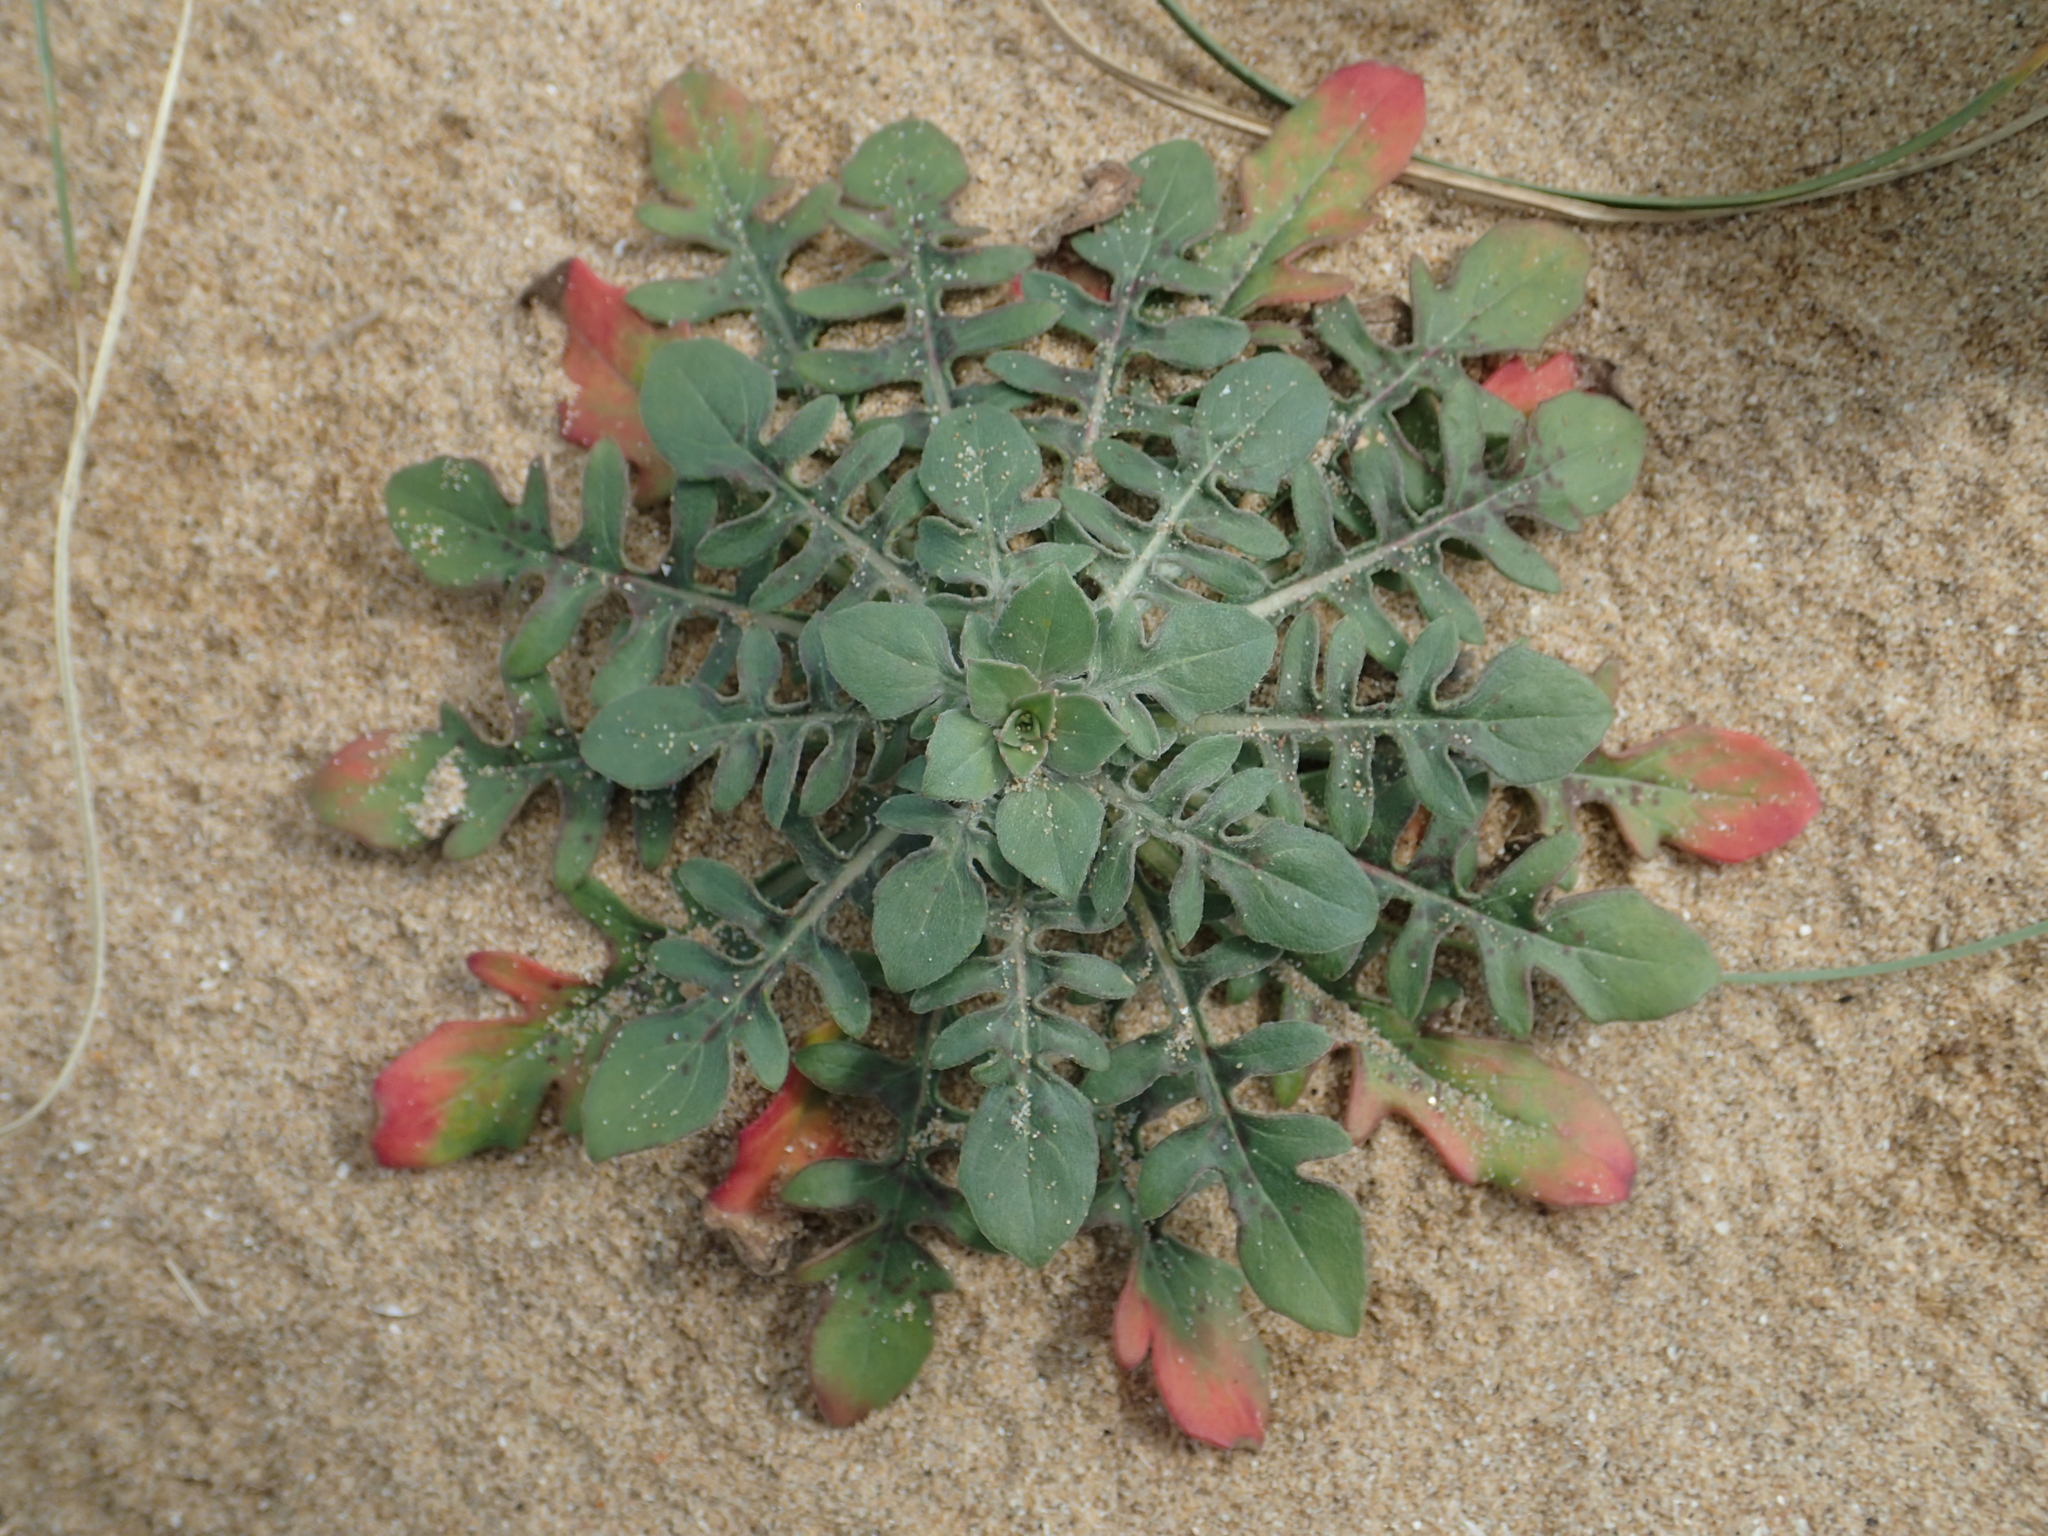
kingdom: Plantae
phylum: Tracheophyta
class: Magnoliopsida
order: Myrtales
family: Onagraceae
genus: Oenothera
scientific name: Oenothera laciniata
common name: Cut-leaved evening-primrose
